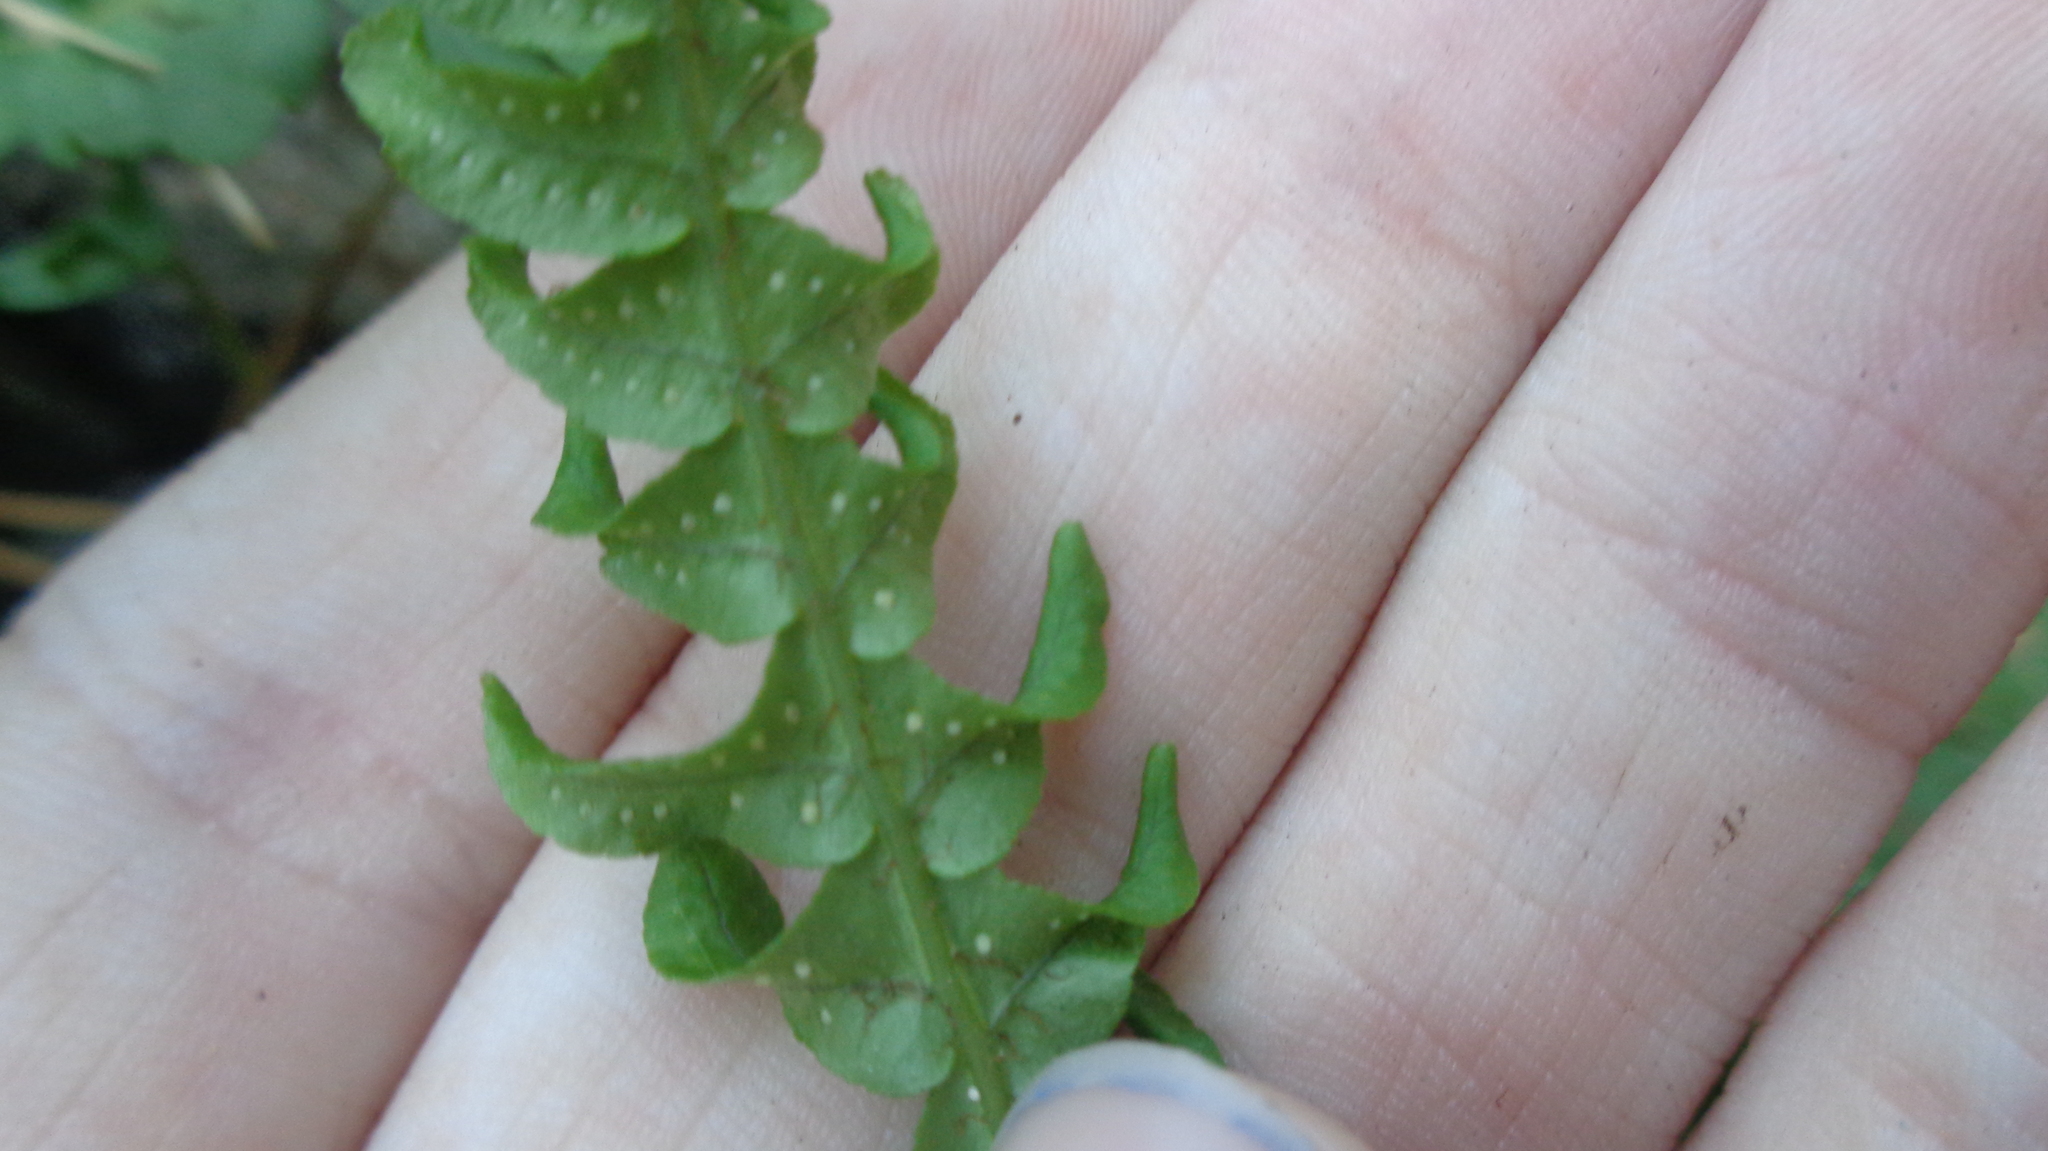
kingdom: Plantae
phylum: Tracheophyta
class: Polypodiopsida
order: Polypodiales
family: Polypodiaceae
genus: Polypodium
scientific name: Polypodium vulgare
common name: Common polypody
